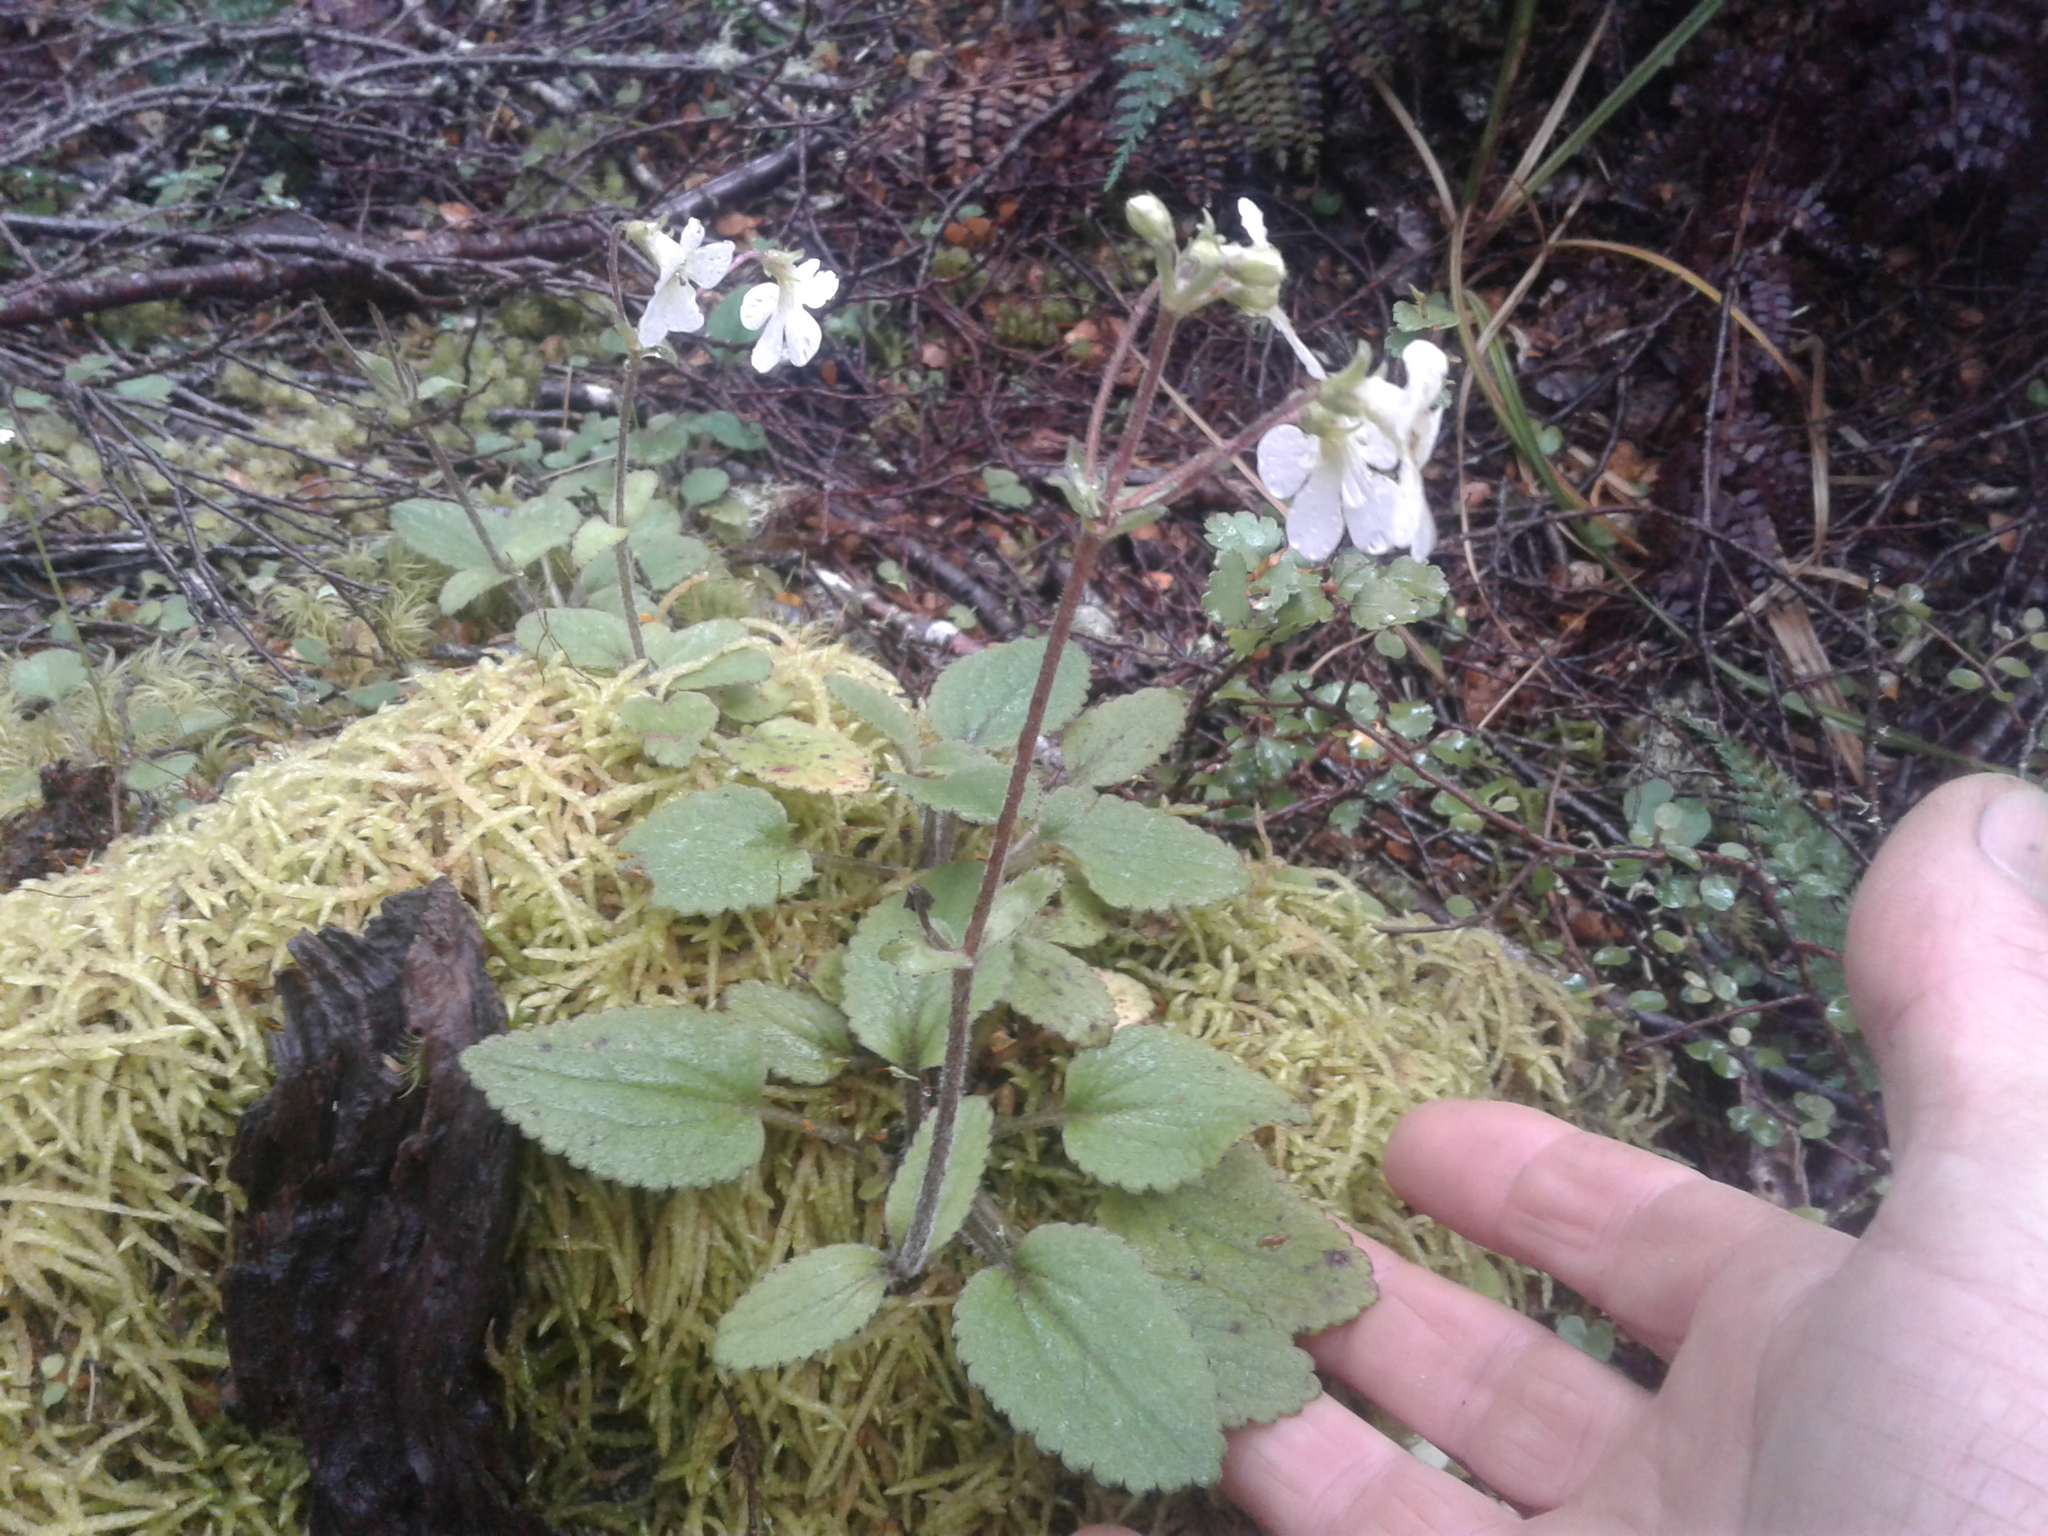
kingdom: Plantae
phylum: Tracheophyta
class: Magnoliopsida
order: Lamiales
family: Plantaginaceae
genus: Ourisia
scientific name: Ourisia macrophylla
